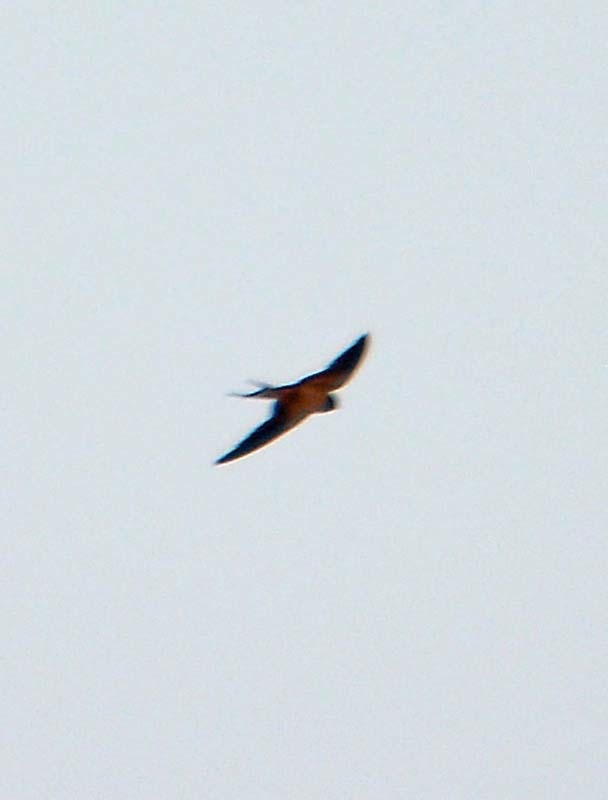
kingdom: Animalia
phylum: Chordata
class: Aves
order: Passeriformes
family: Hirundinidae
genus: Hirundo
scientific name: Hirundo rustica
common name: Barn swallow
